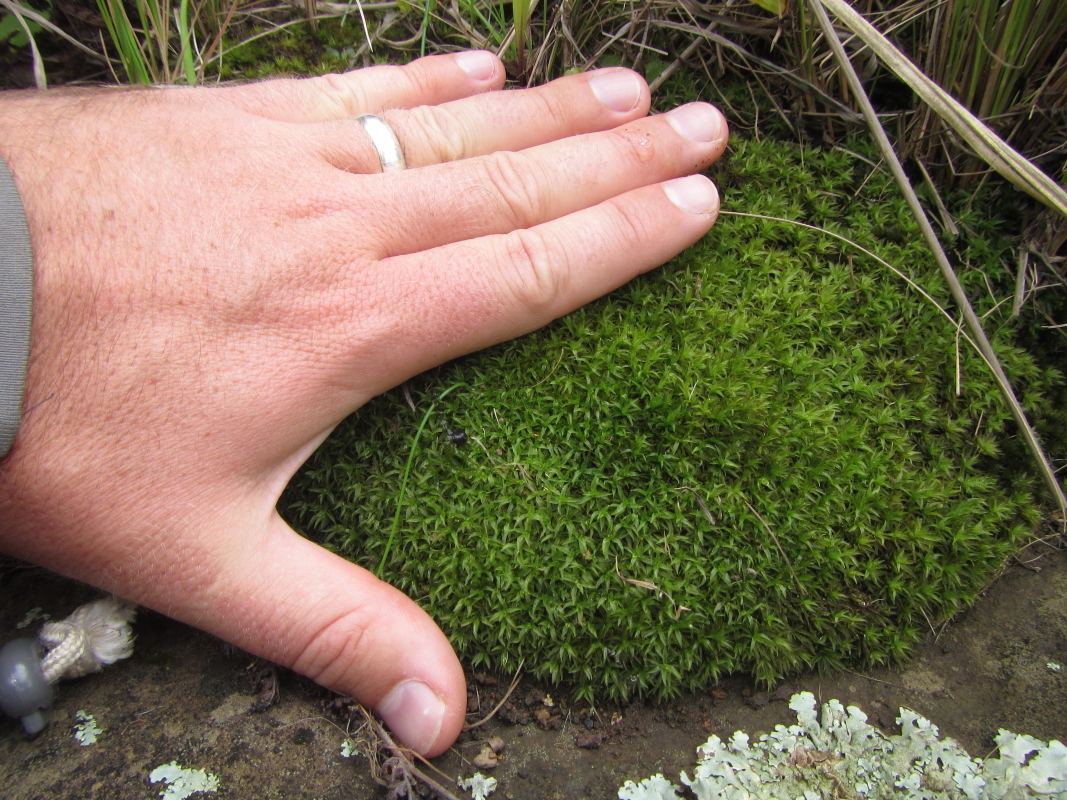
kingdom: Plantae
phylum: Bryophyta
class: Polytrichopsida
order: Polytrichales
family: Polytrichaceae
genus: Atrichum
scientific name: Atrichum androgynum
